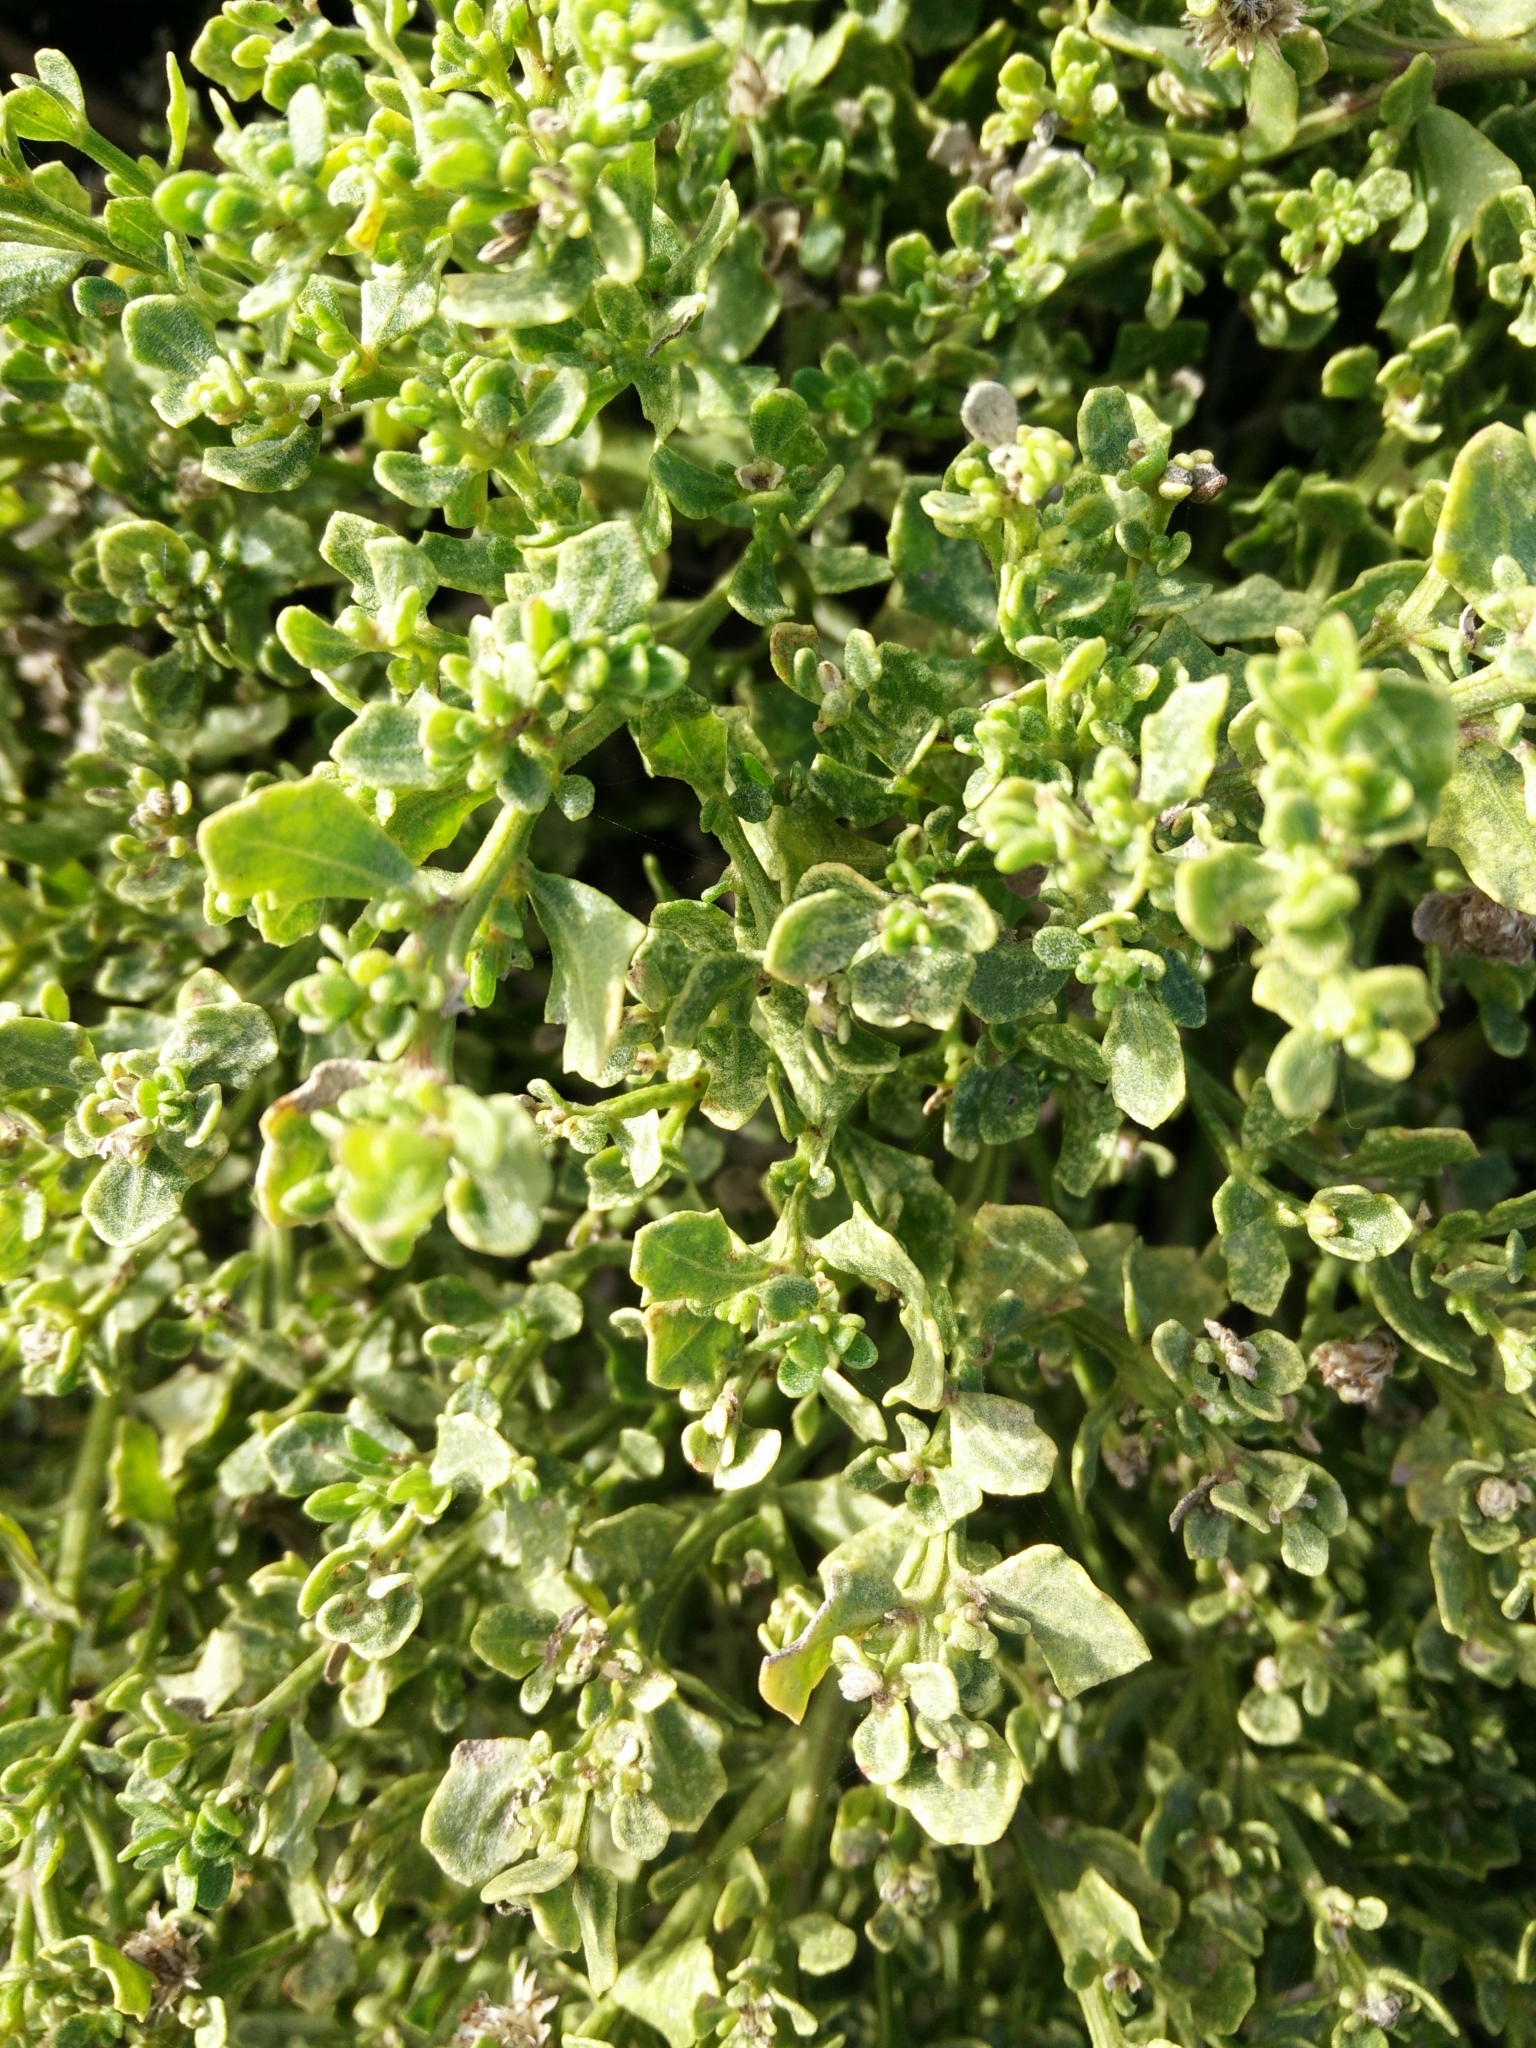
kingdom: Plantae
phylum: Tracheophyta
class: Magnoliopsida
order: Asterales
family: Asteraceae
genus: Baccharis
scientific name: Baccharis pilularis
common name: Coyotebrush
